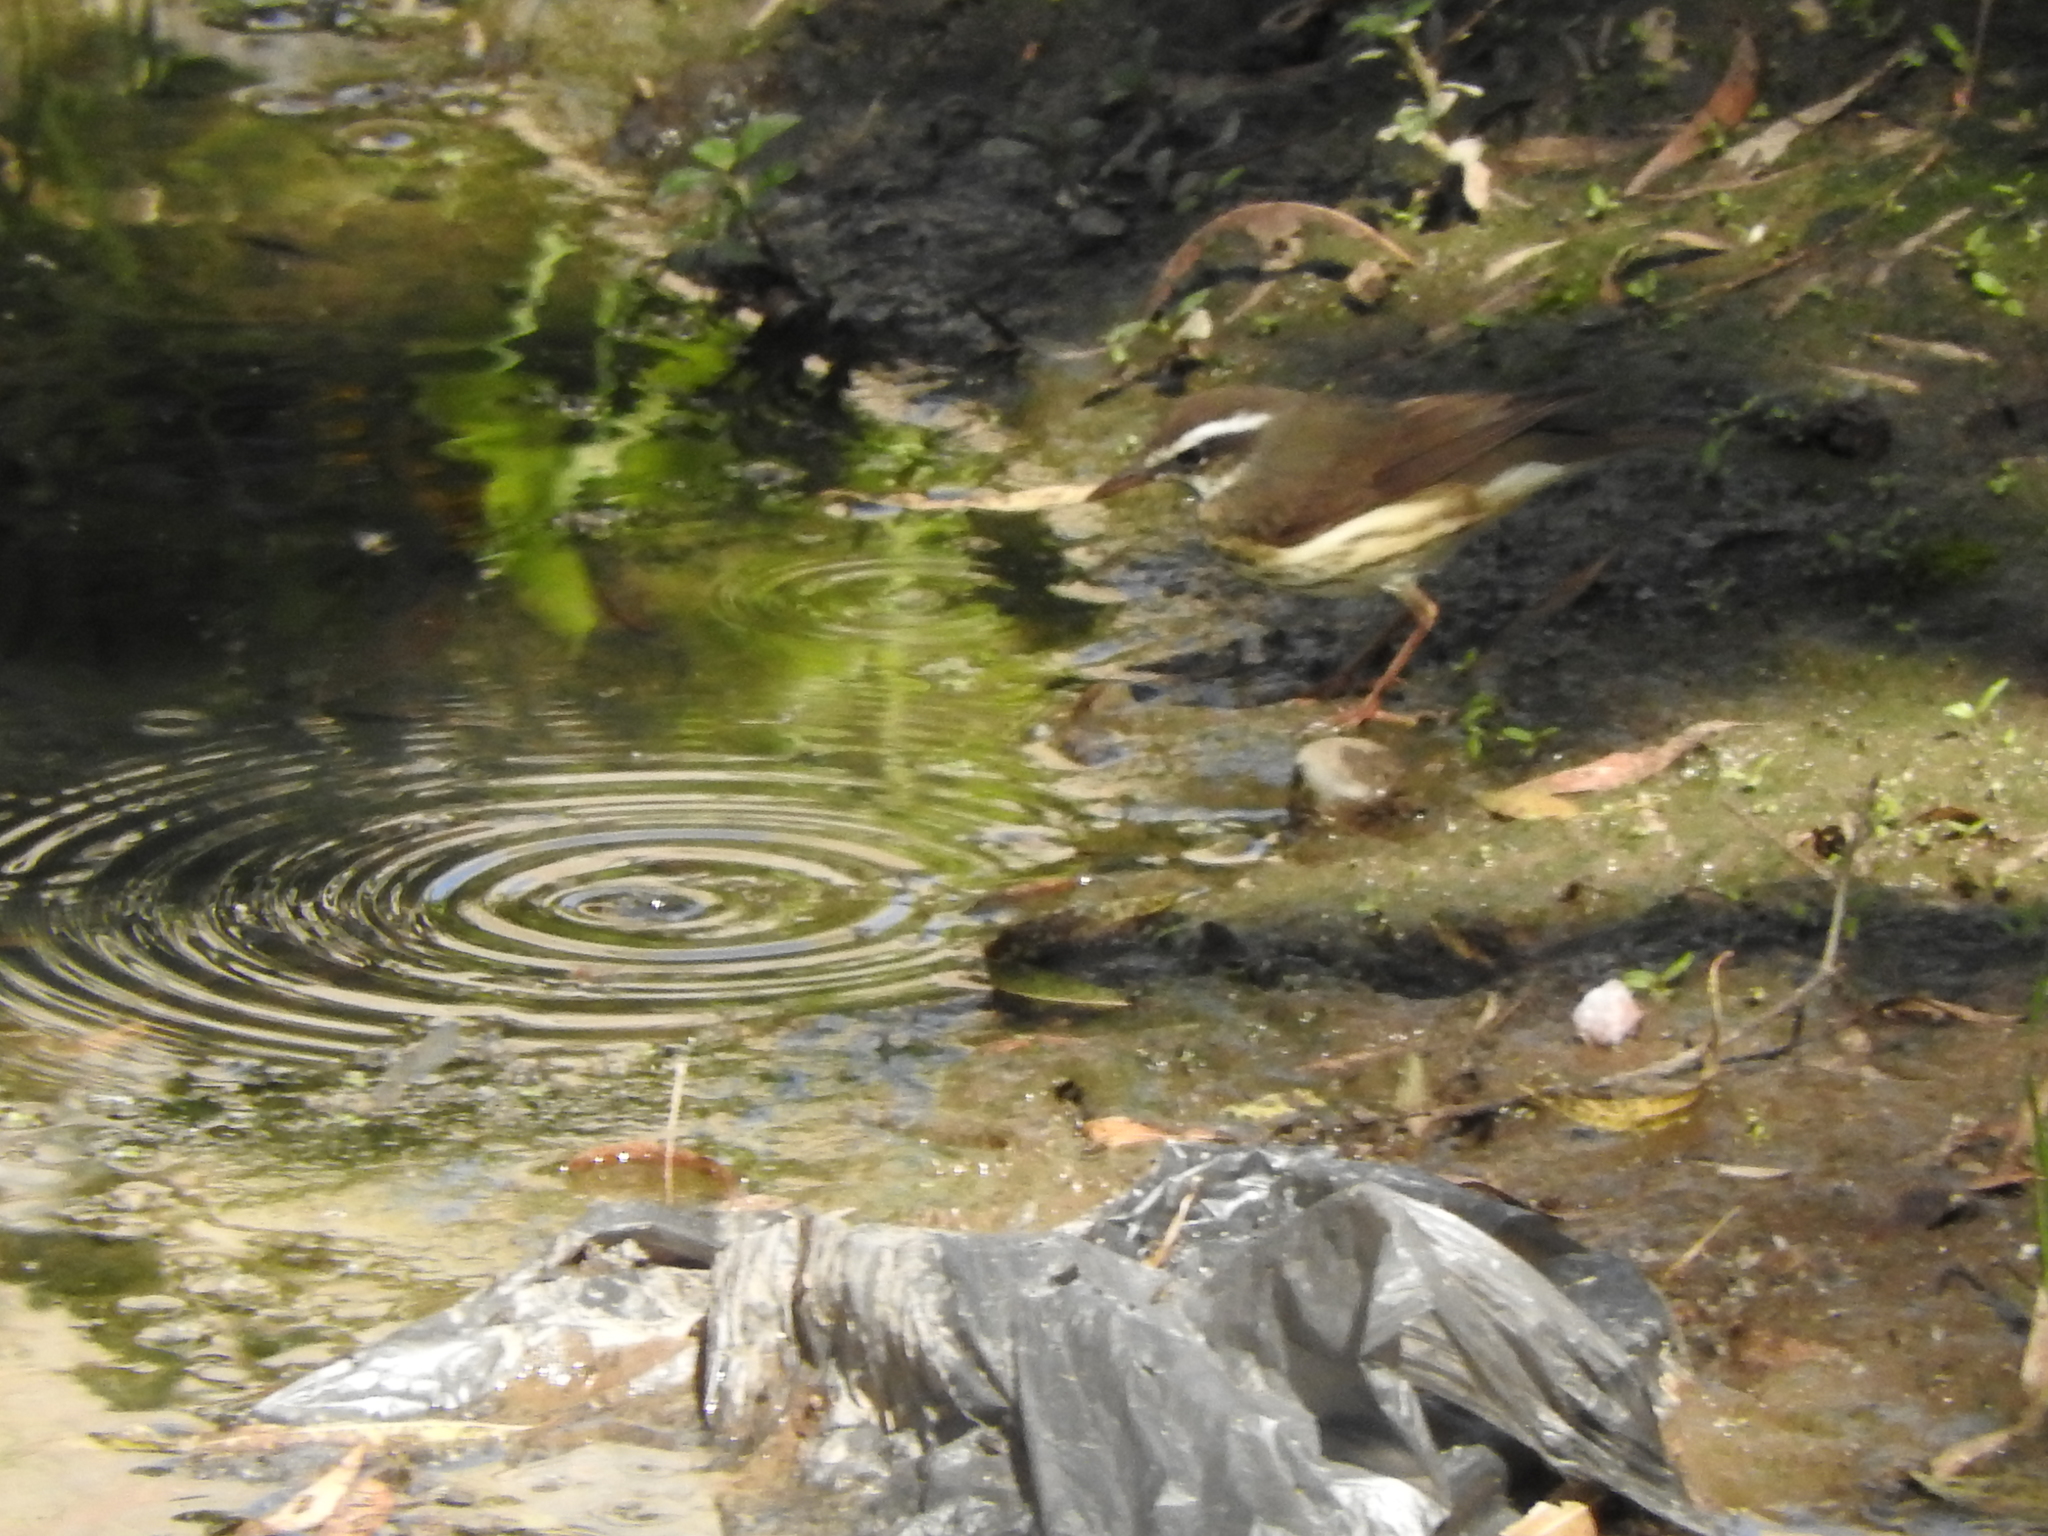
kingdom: Animalia
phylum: Chordata
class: Aves
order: Passeriformes
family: Parulidae
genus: Parkesia
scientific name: Parkesia motacilla
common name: Louisiana waterthrush
